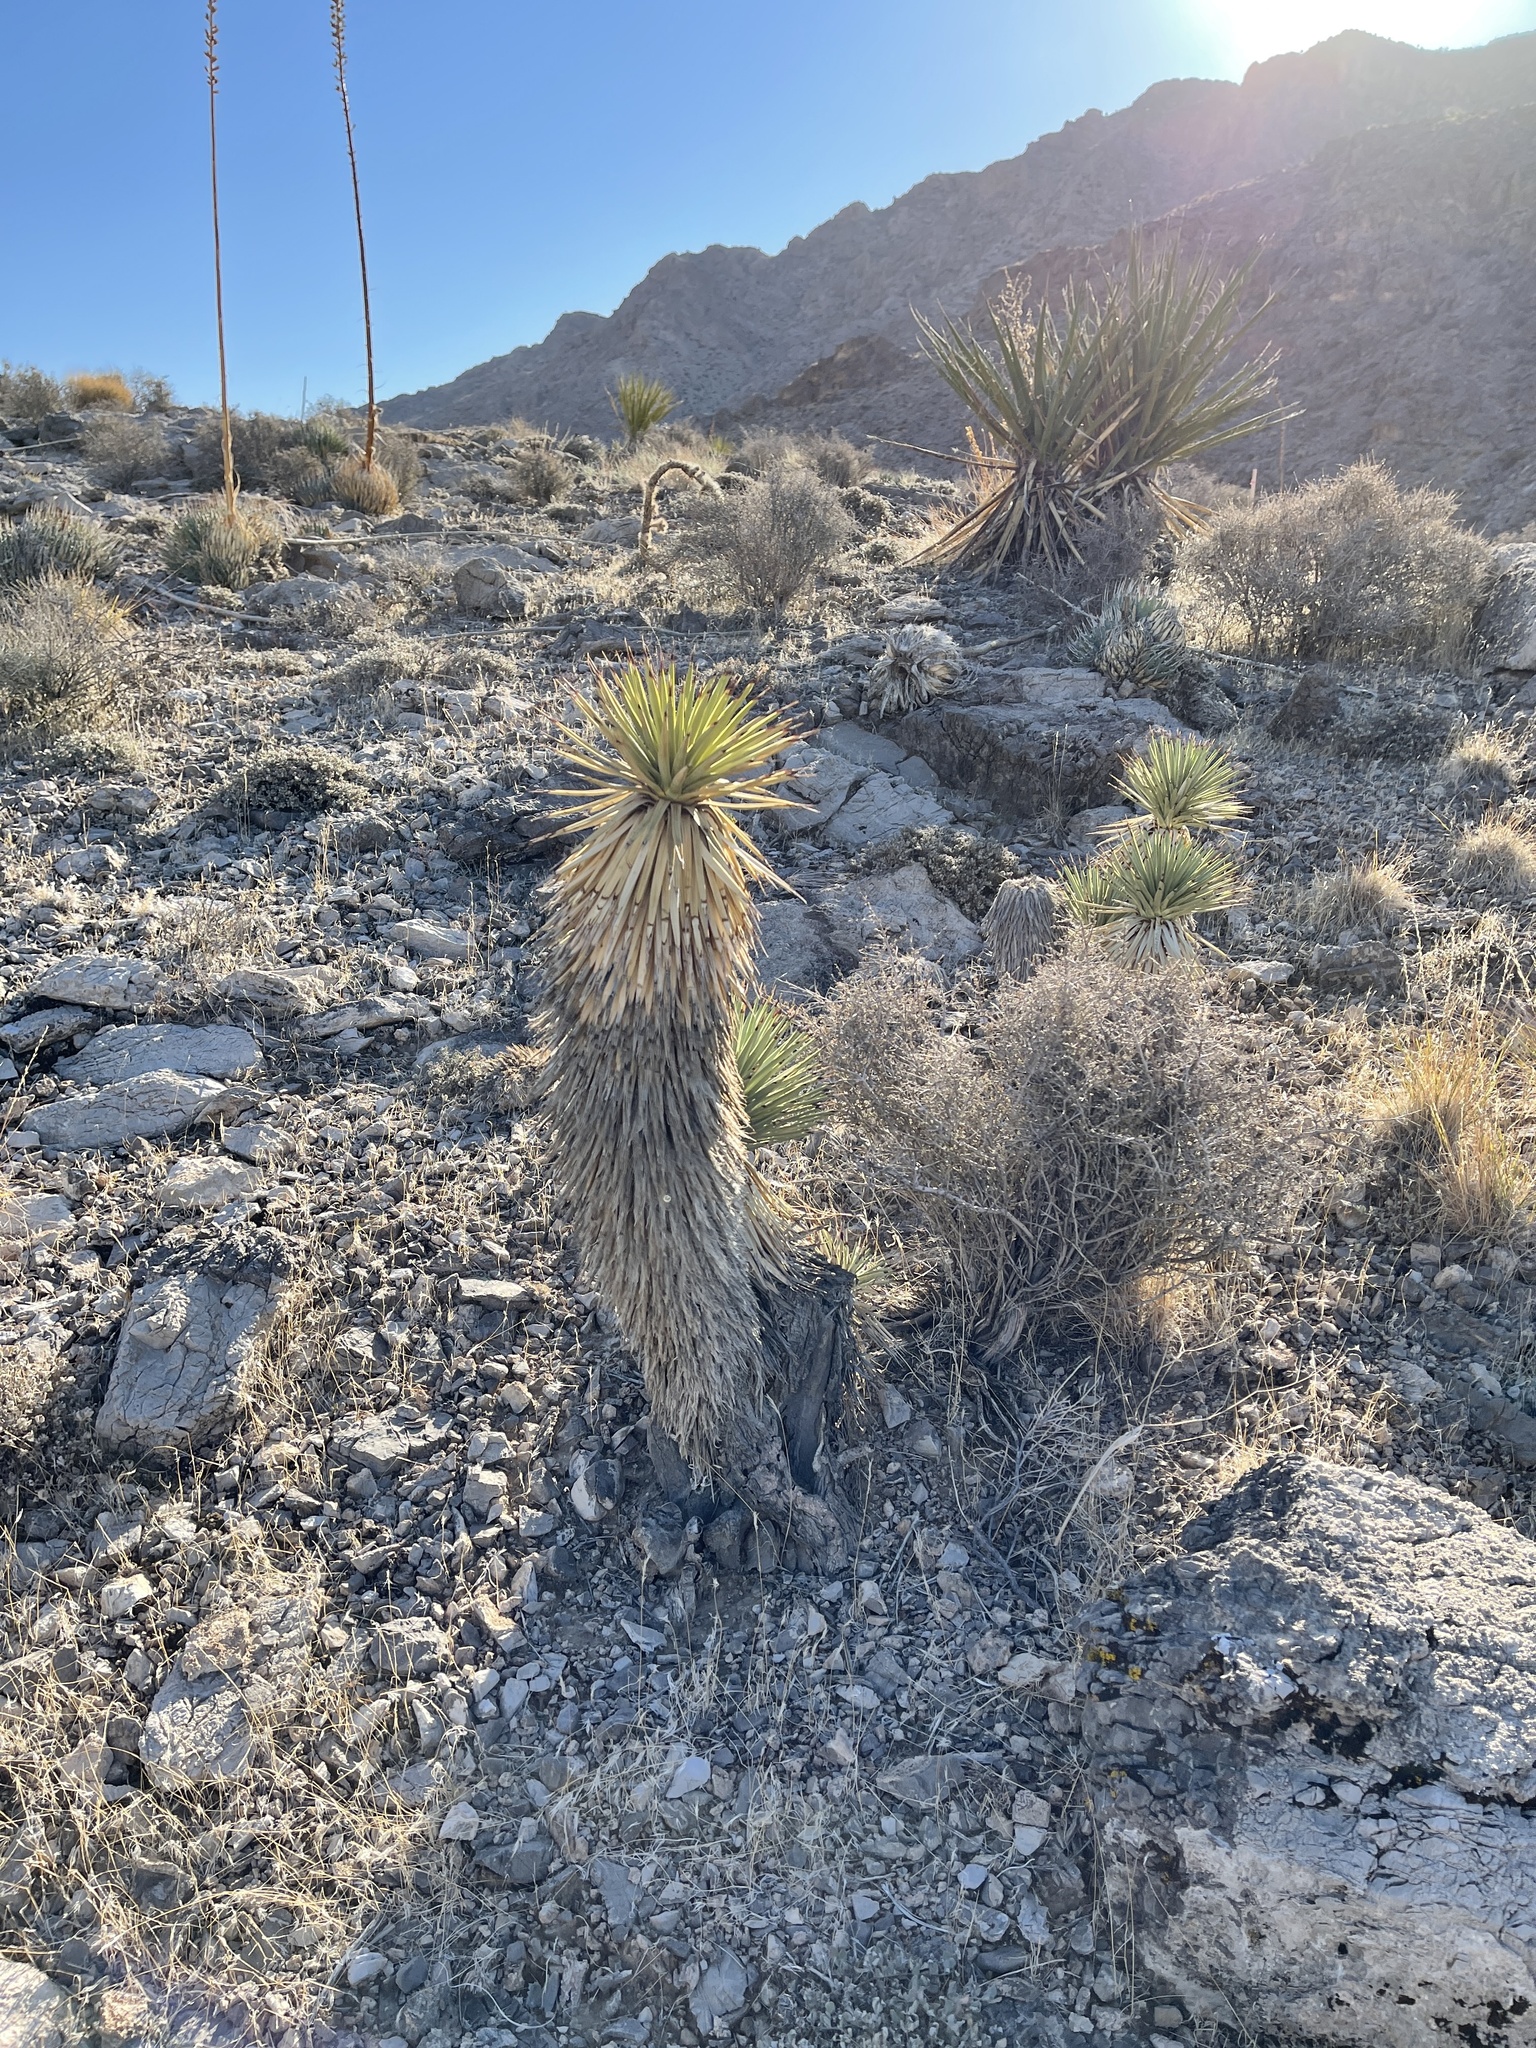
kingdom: Plantae
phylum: Tracheophyta
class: Liliopsida
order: Asparagales
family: Asparagaceae
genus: Yucca
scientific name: Yucca brevifolia
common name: Joshua tree
